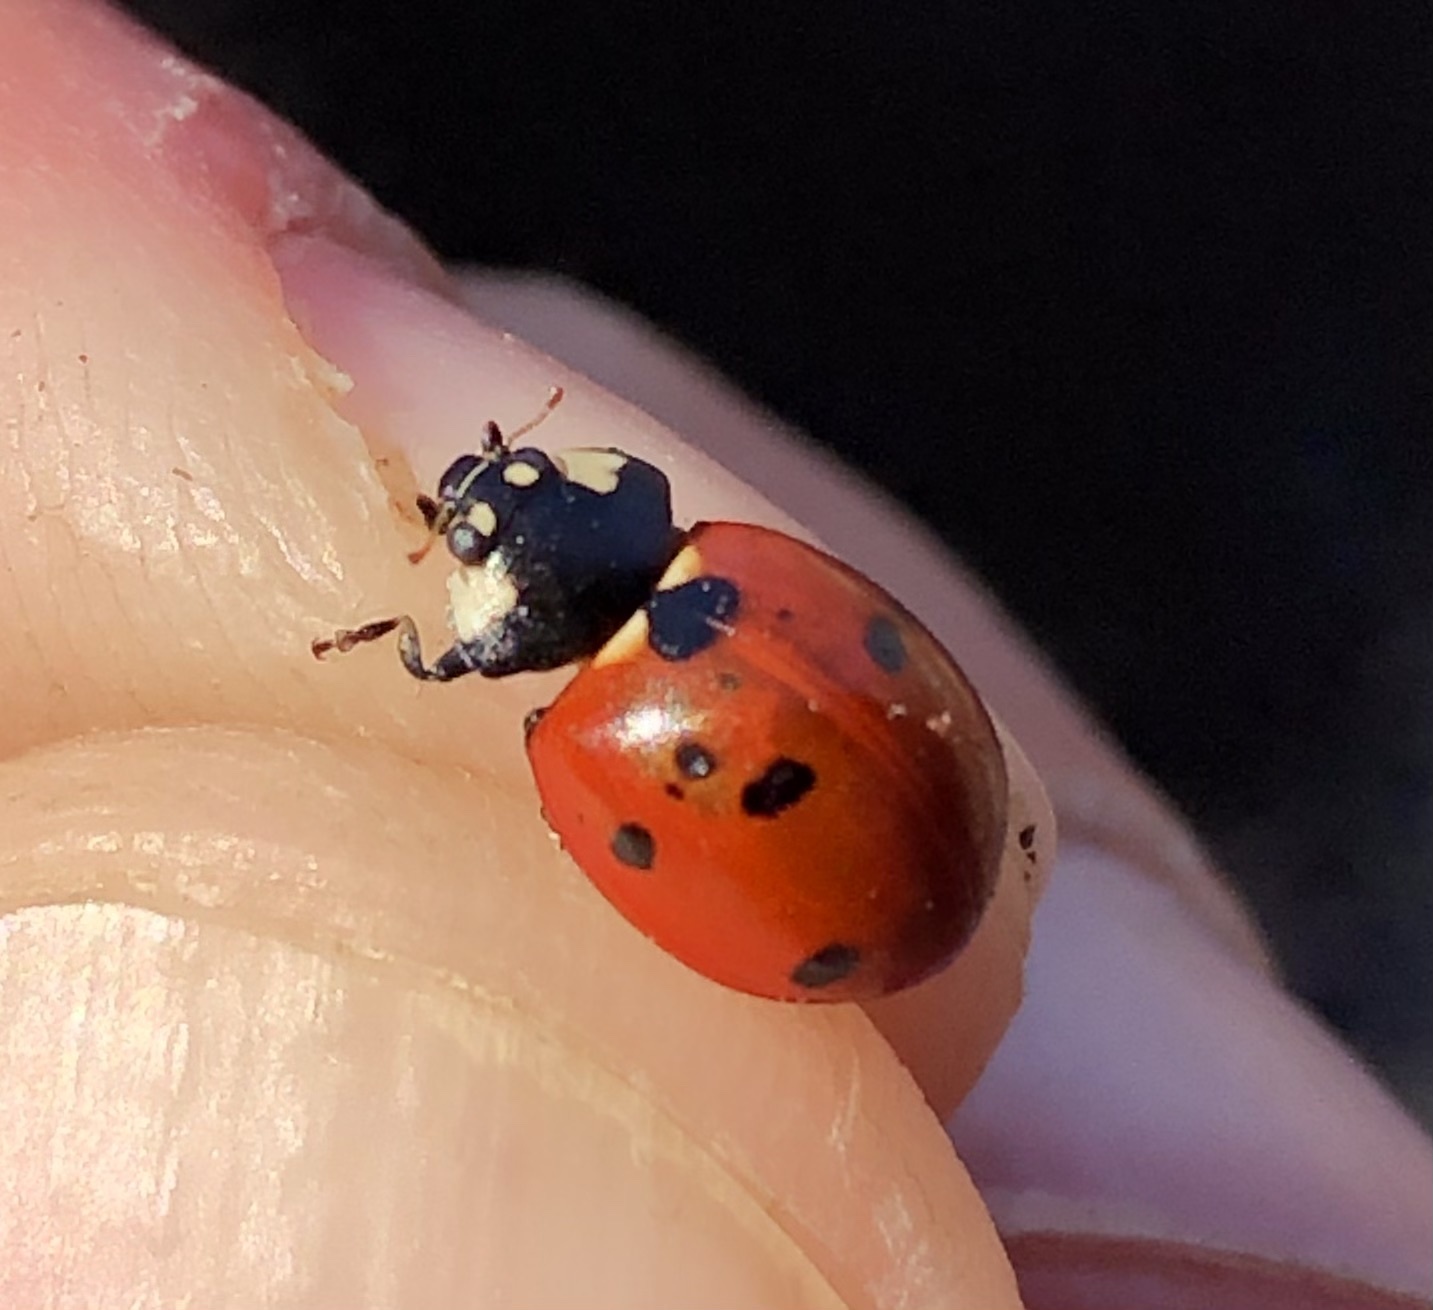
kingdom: Animalia
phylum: Arthropoda
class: Insecta
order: Coleoptera
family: Coccinellidae
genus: Coccinella
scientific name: Coccinella septempunctata
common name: Sevenspotted lady beetle
